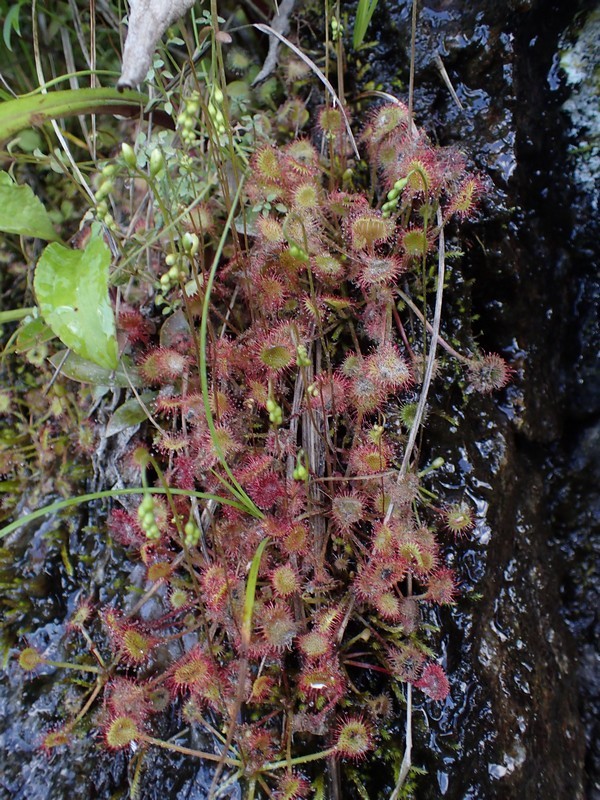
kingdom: Plantae
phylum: Tracheophyta
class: Magnoliopsida
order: Caryophyllales
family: Droseraceae
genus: Drosera
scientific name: Drosera rotundifolia
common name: Round-leaved sundew
